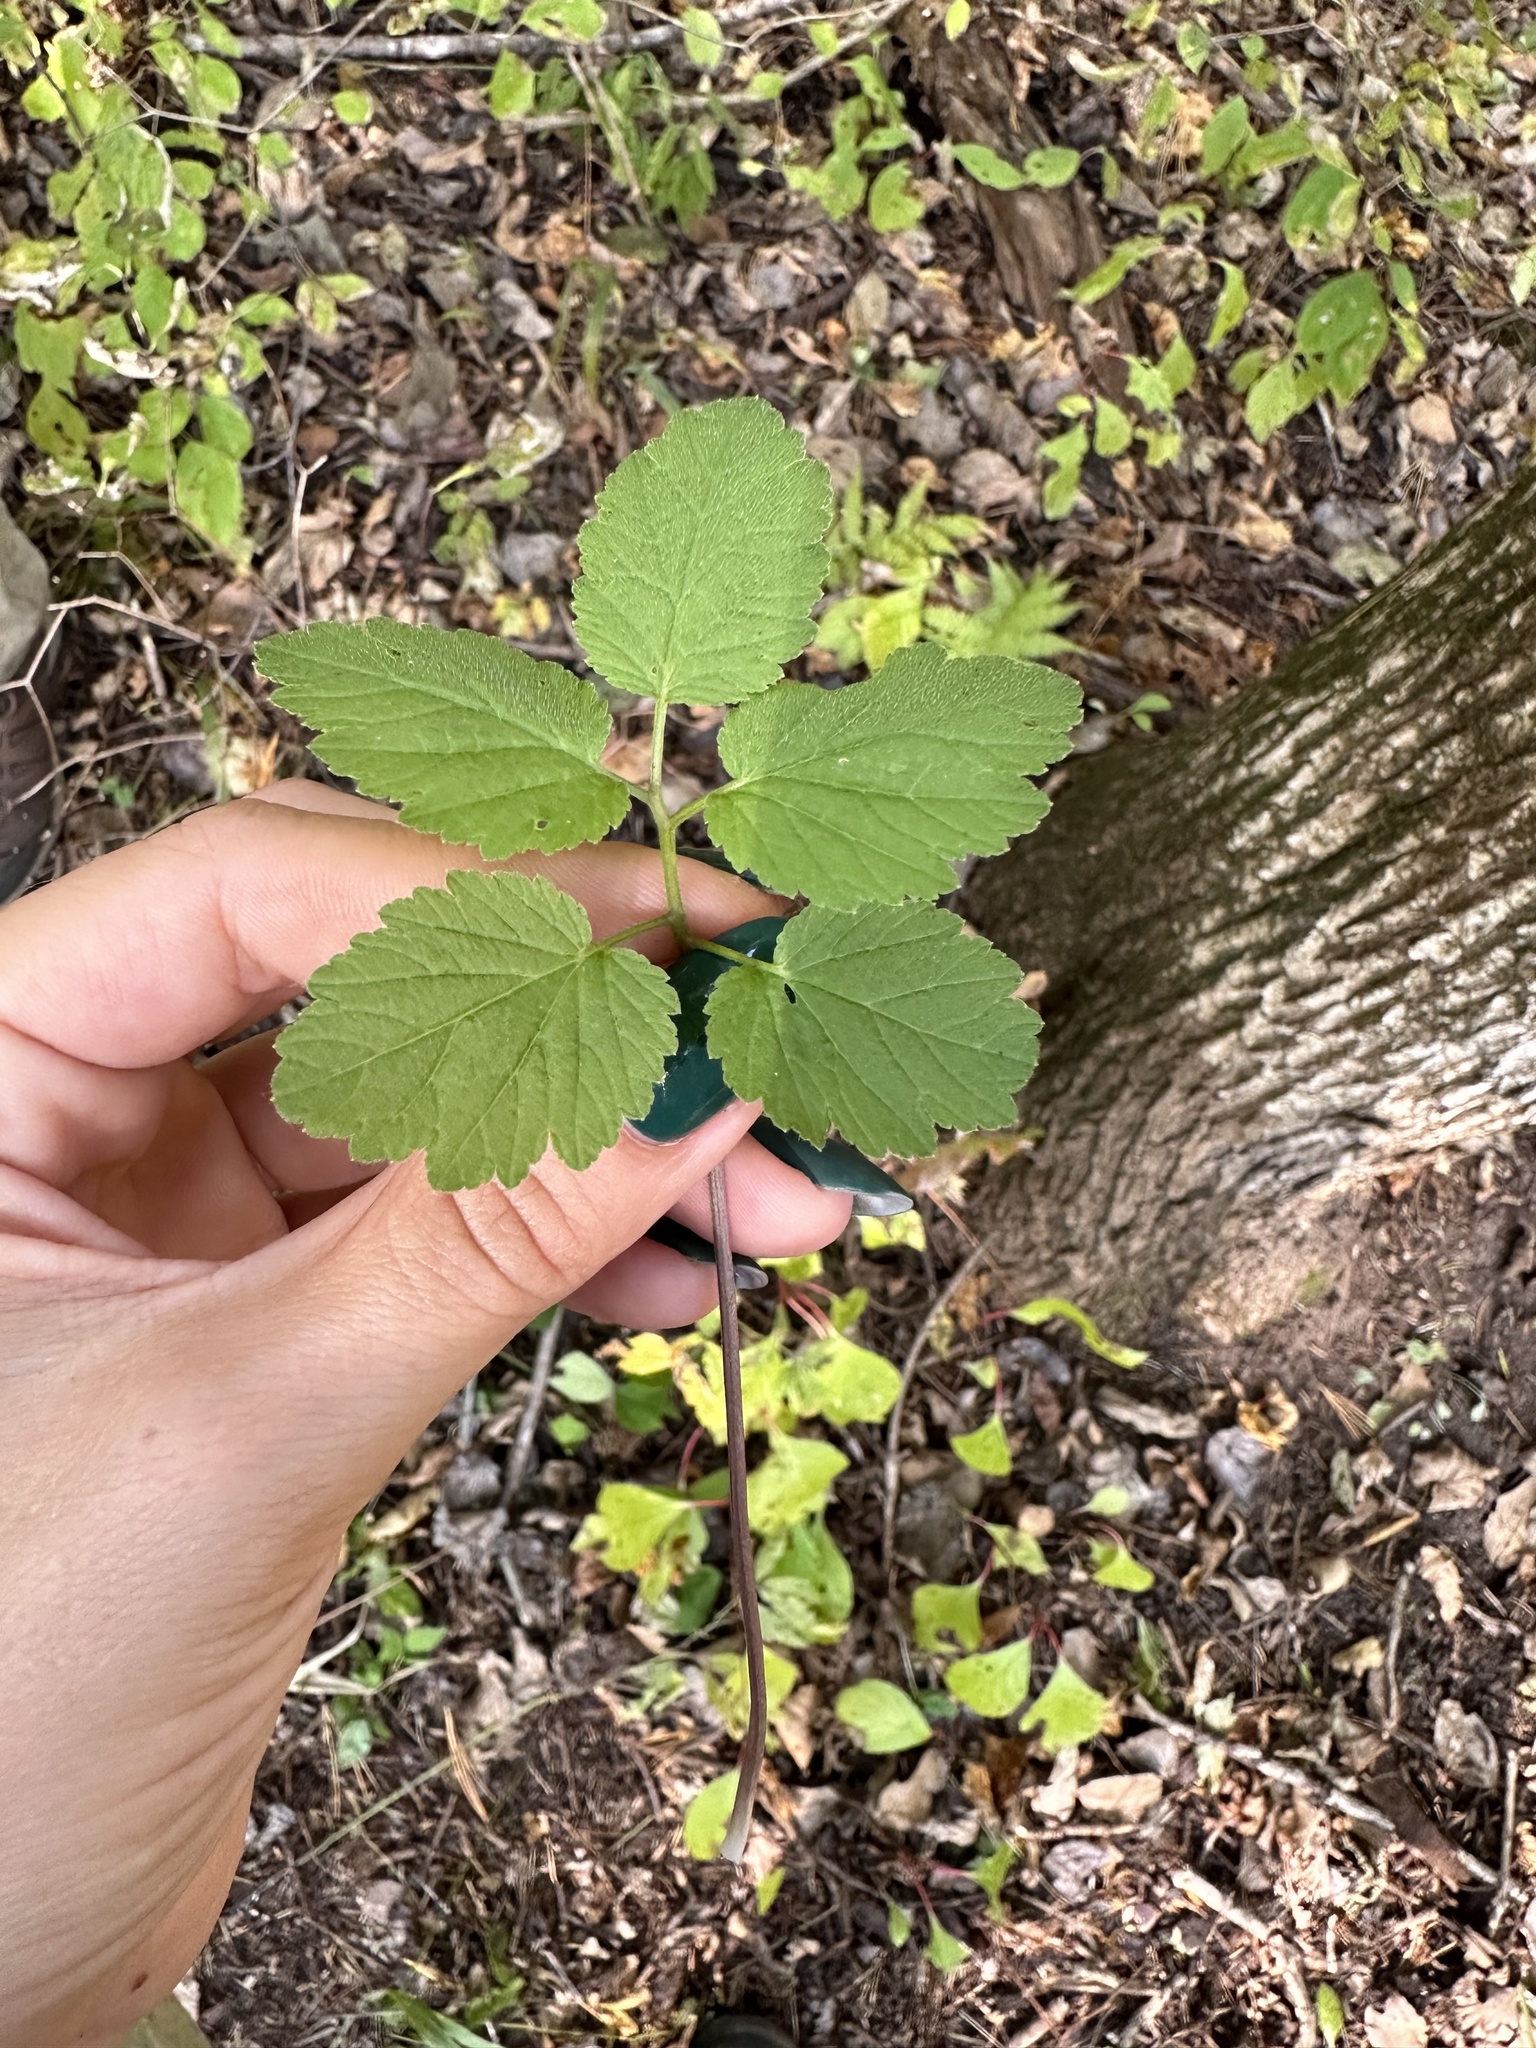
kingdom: Plantae
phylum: Tracheophyta
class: Magnoliopsida
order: Brassicales
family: Brassicaceae
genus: Cardamine
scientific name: Cardamine leucantha
